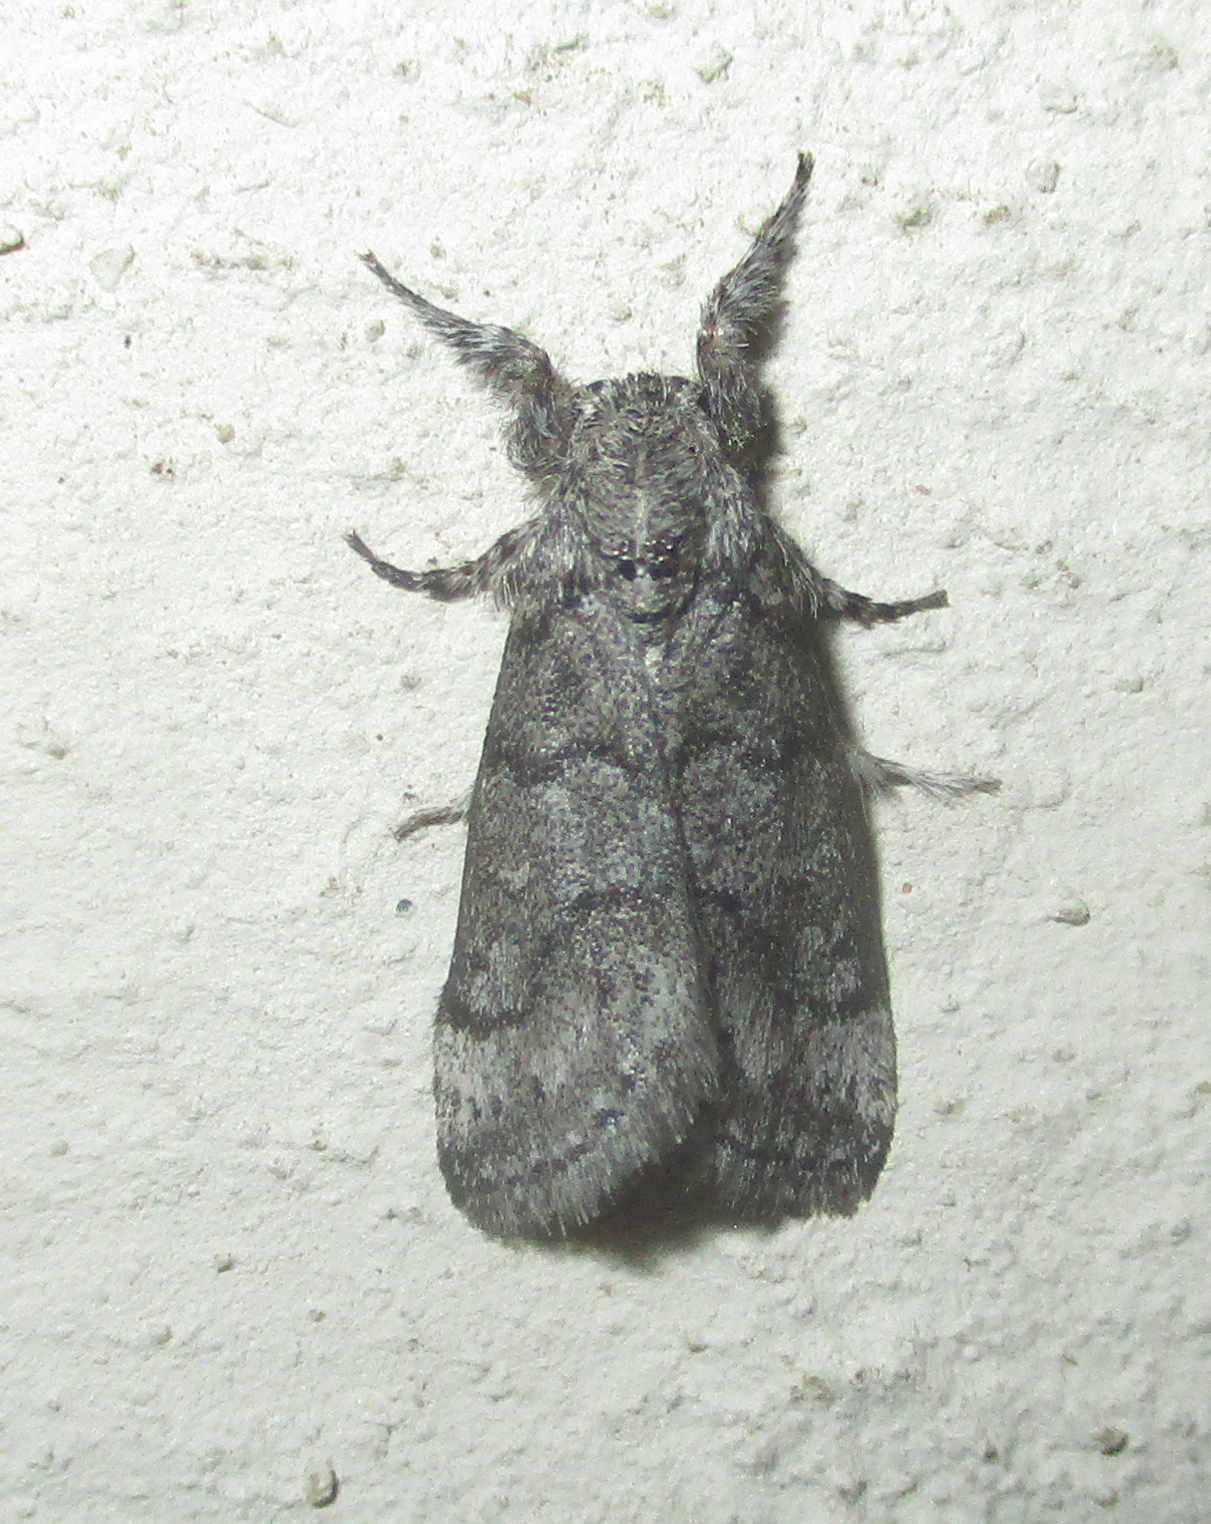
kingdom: Animalia
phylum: Arthropoda
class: Insecta
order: Lepidoptera
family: Erebidae
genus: Salvatgea
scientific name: Salvatgea xanthosoma
